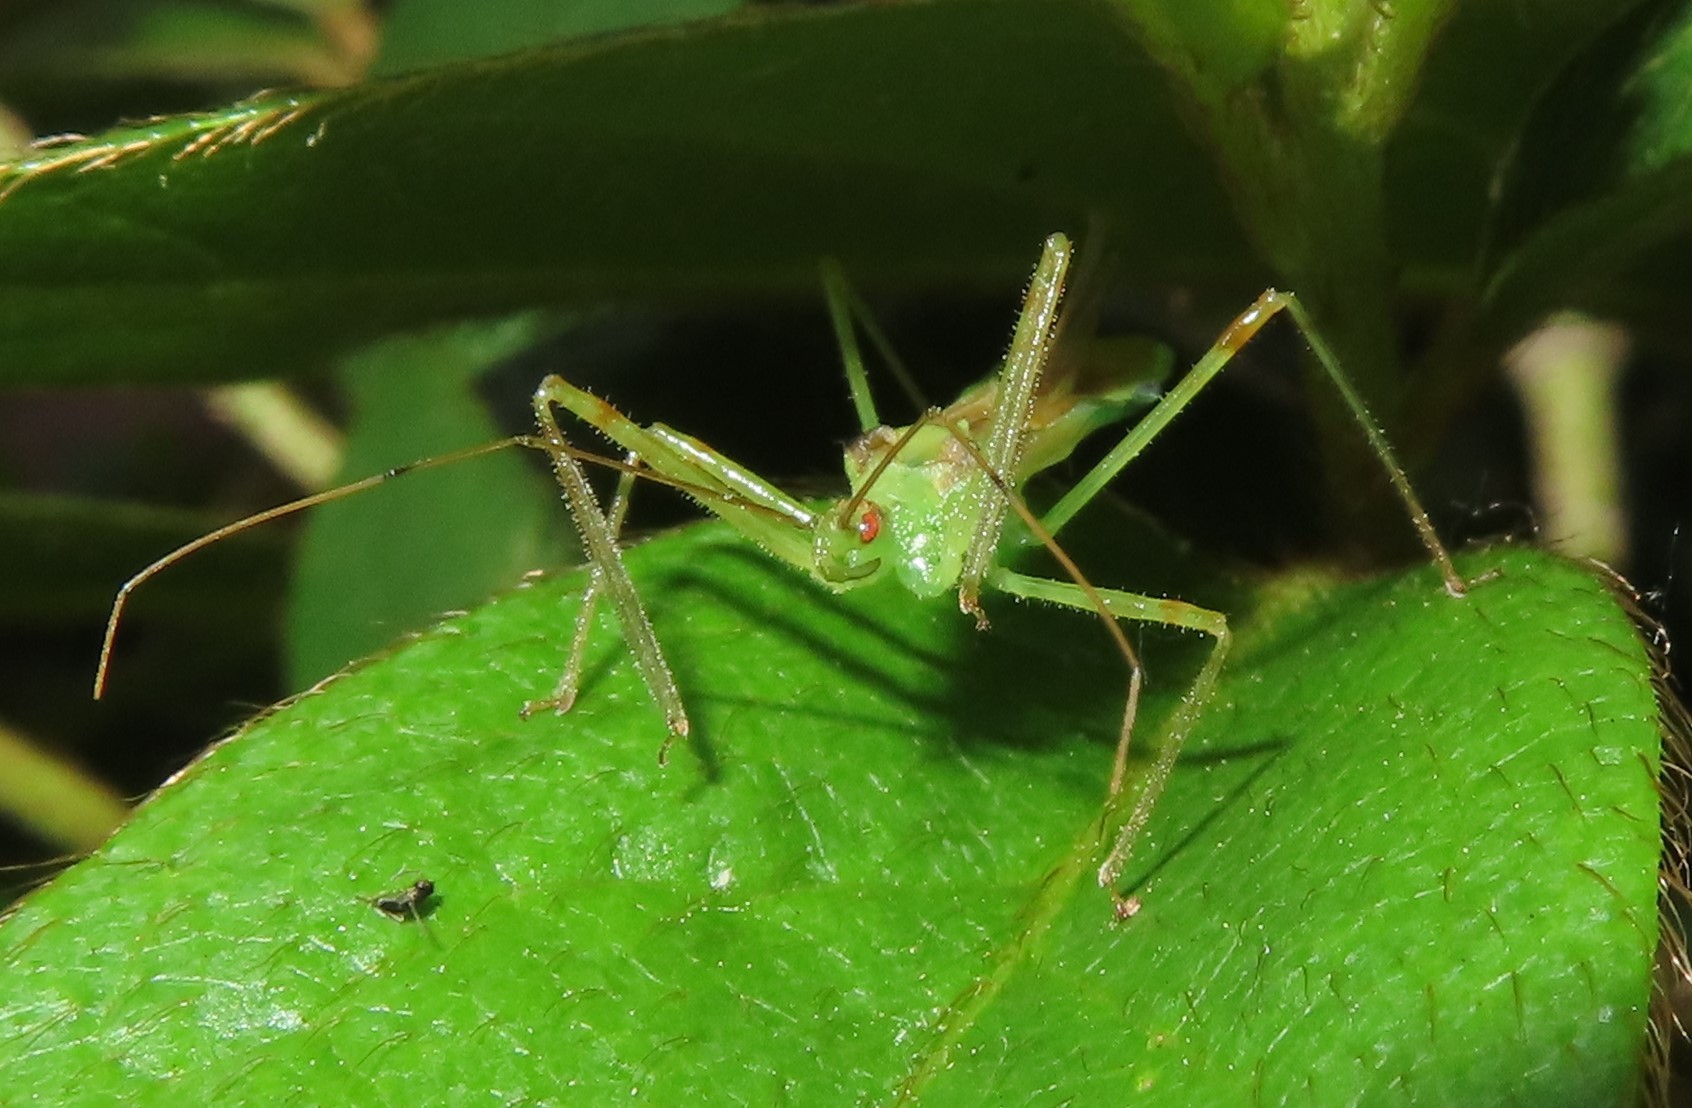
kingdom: Animalia
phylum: Arthropoda
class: Insecta
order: Hemiptera
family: Reduviidae
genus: Zelus
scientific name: Zelus luridus
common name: Pale green assassin bug
